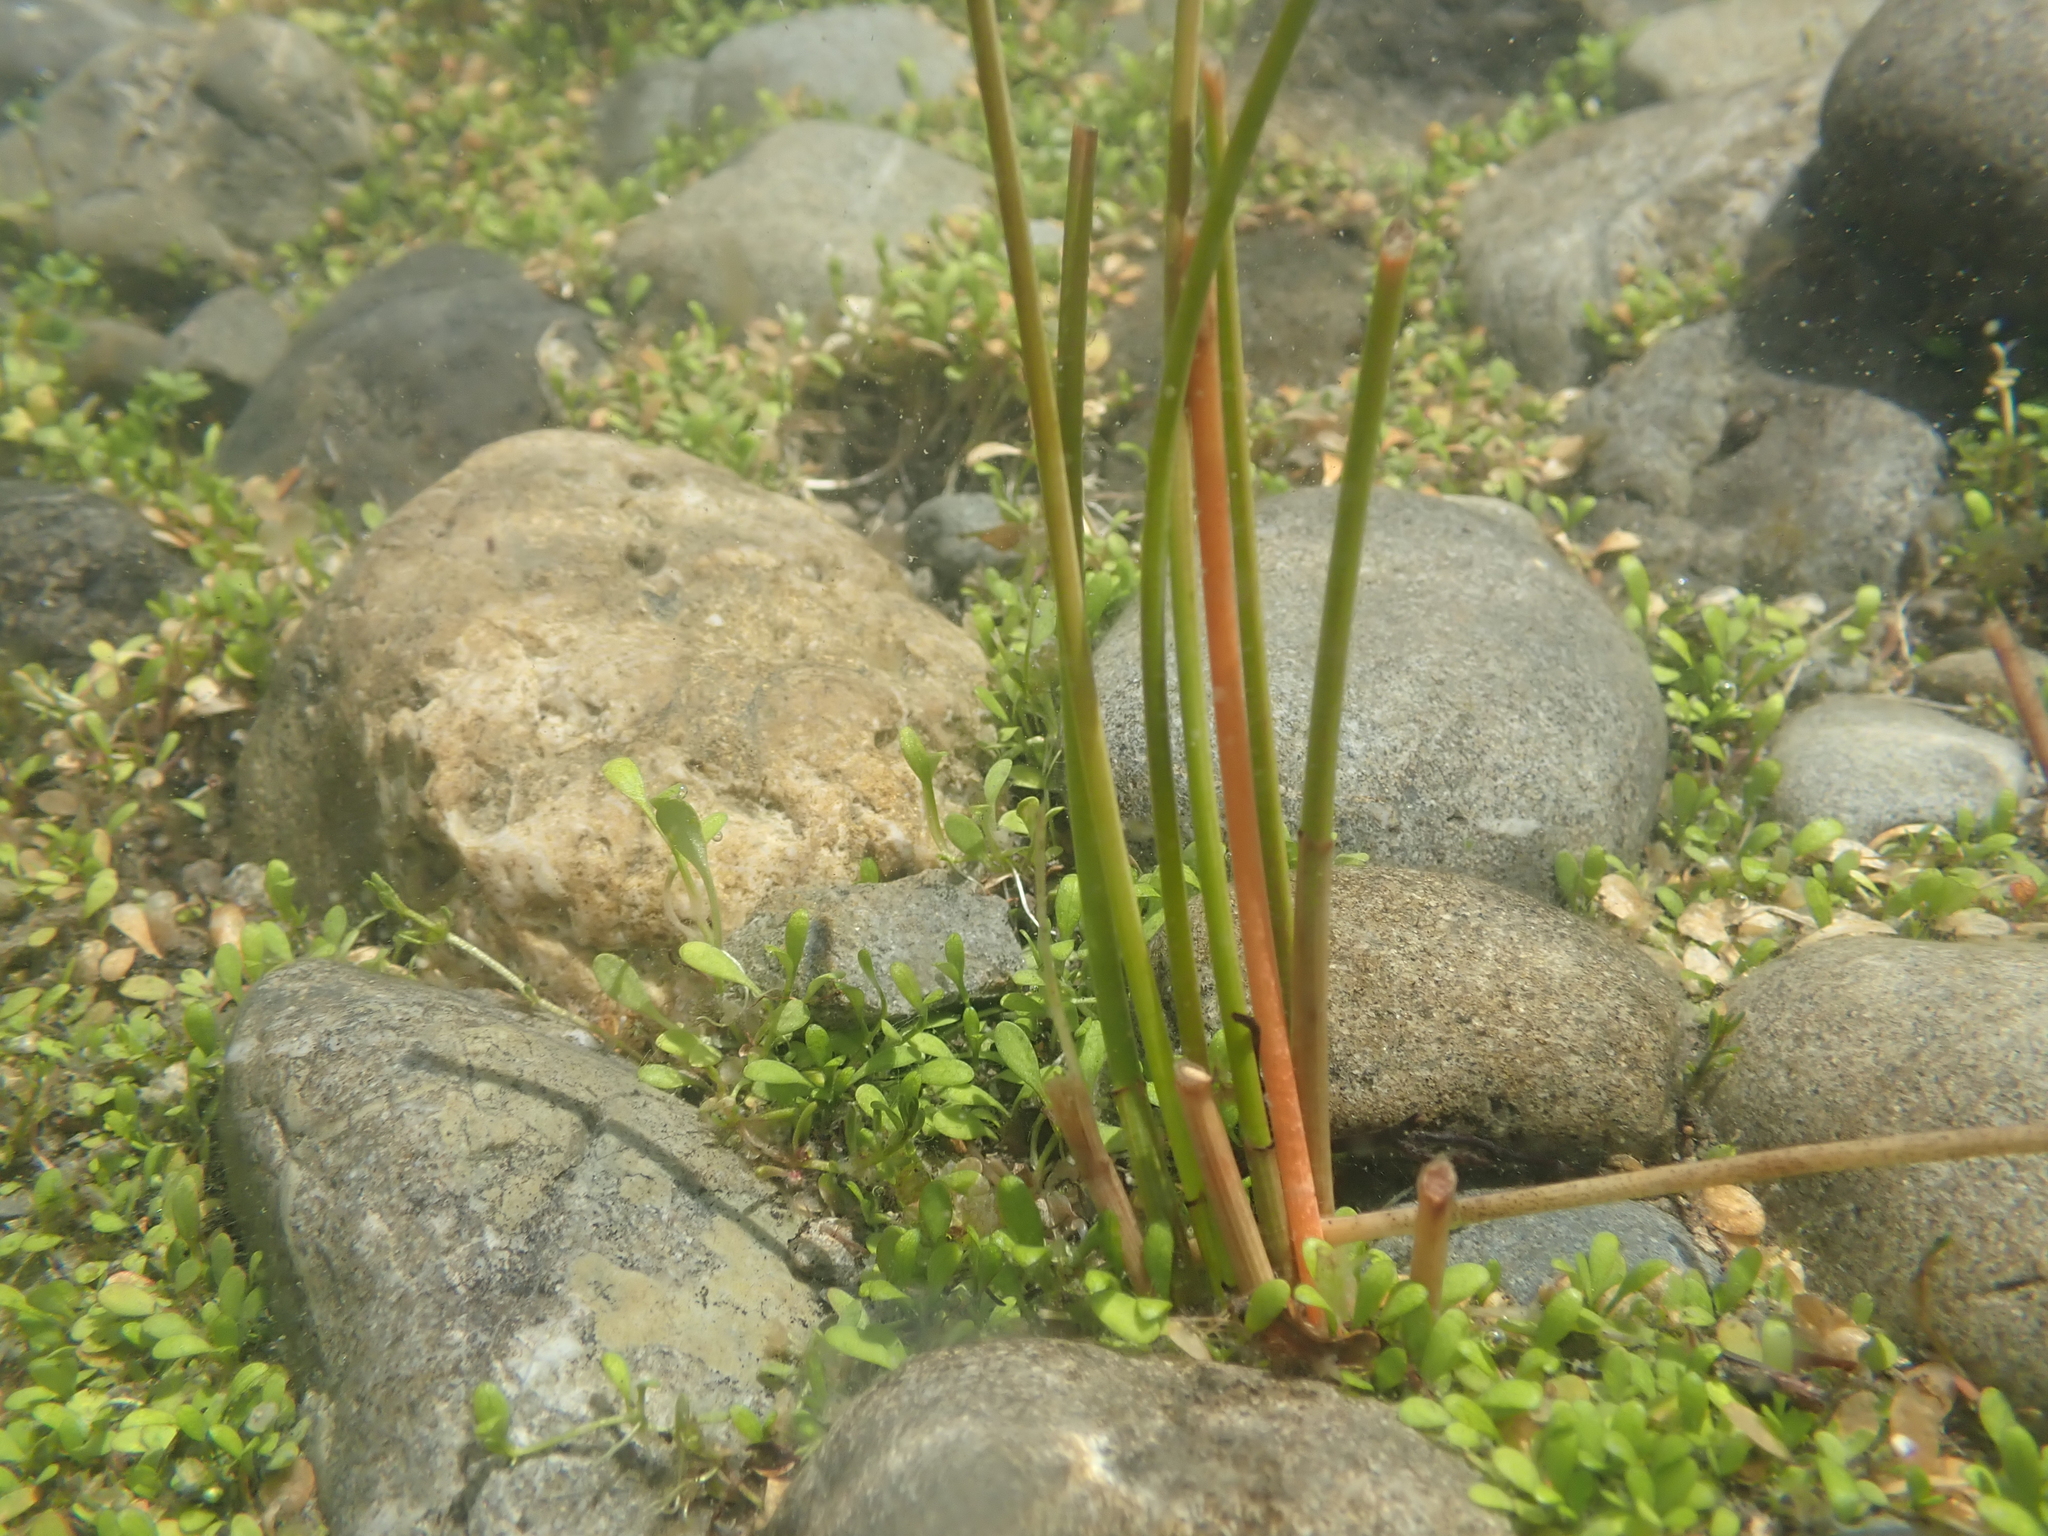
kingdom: Plantae
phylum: Tracheophyta
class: Liliopsida
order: Poales
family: Cyperaceae
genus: Eleocharis
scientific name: Eleocharis acuta
